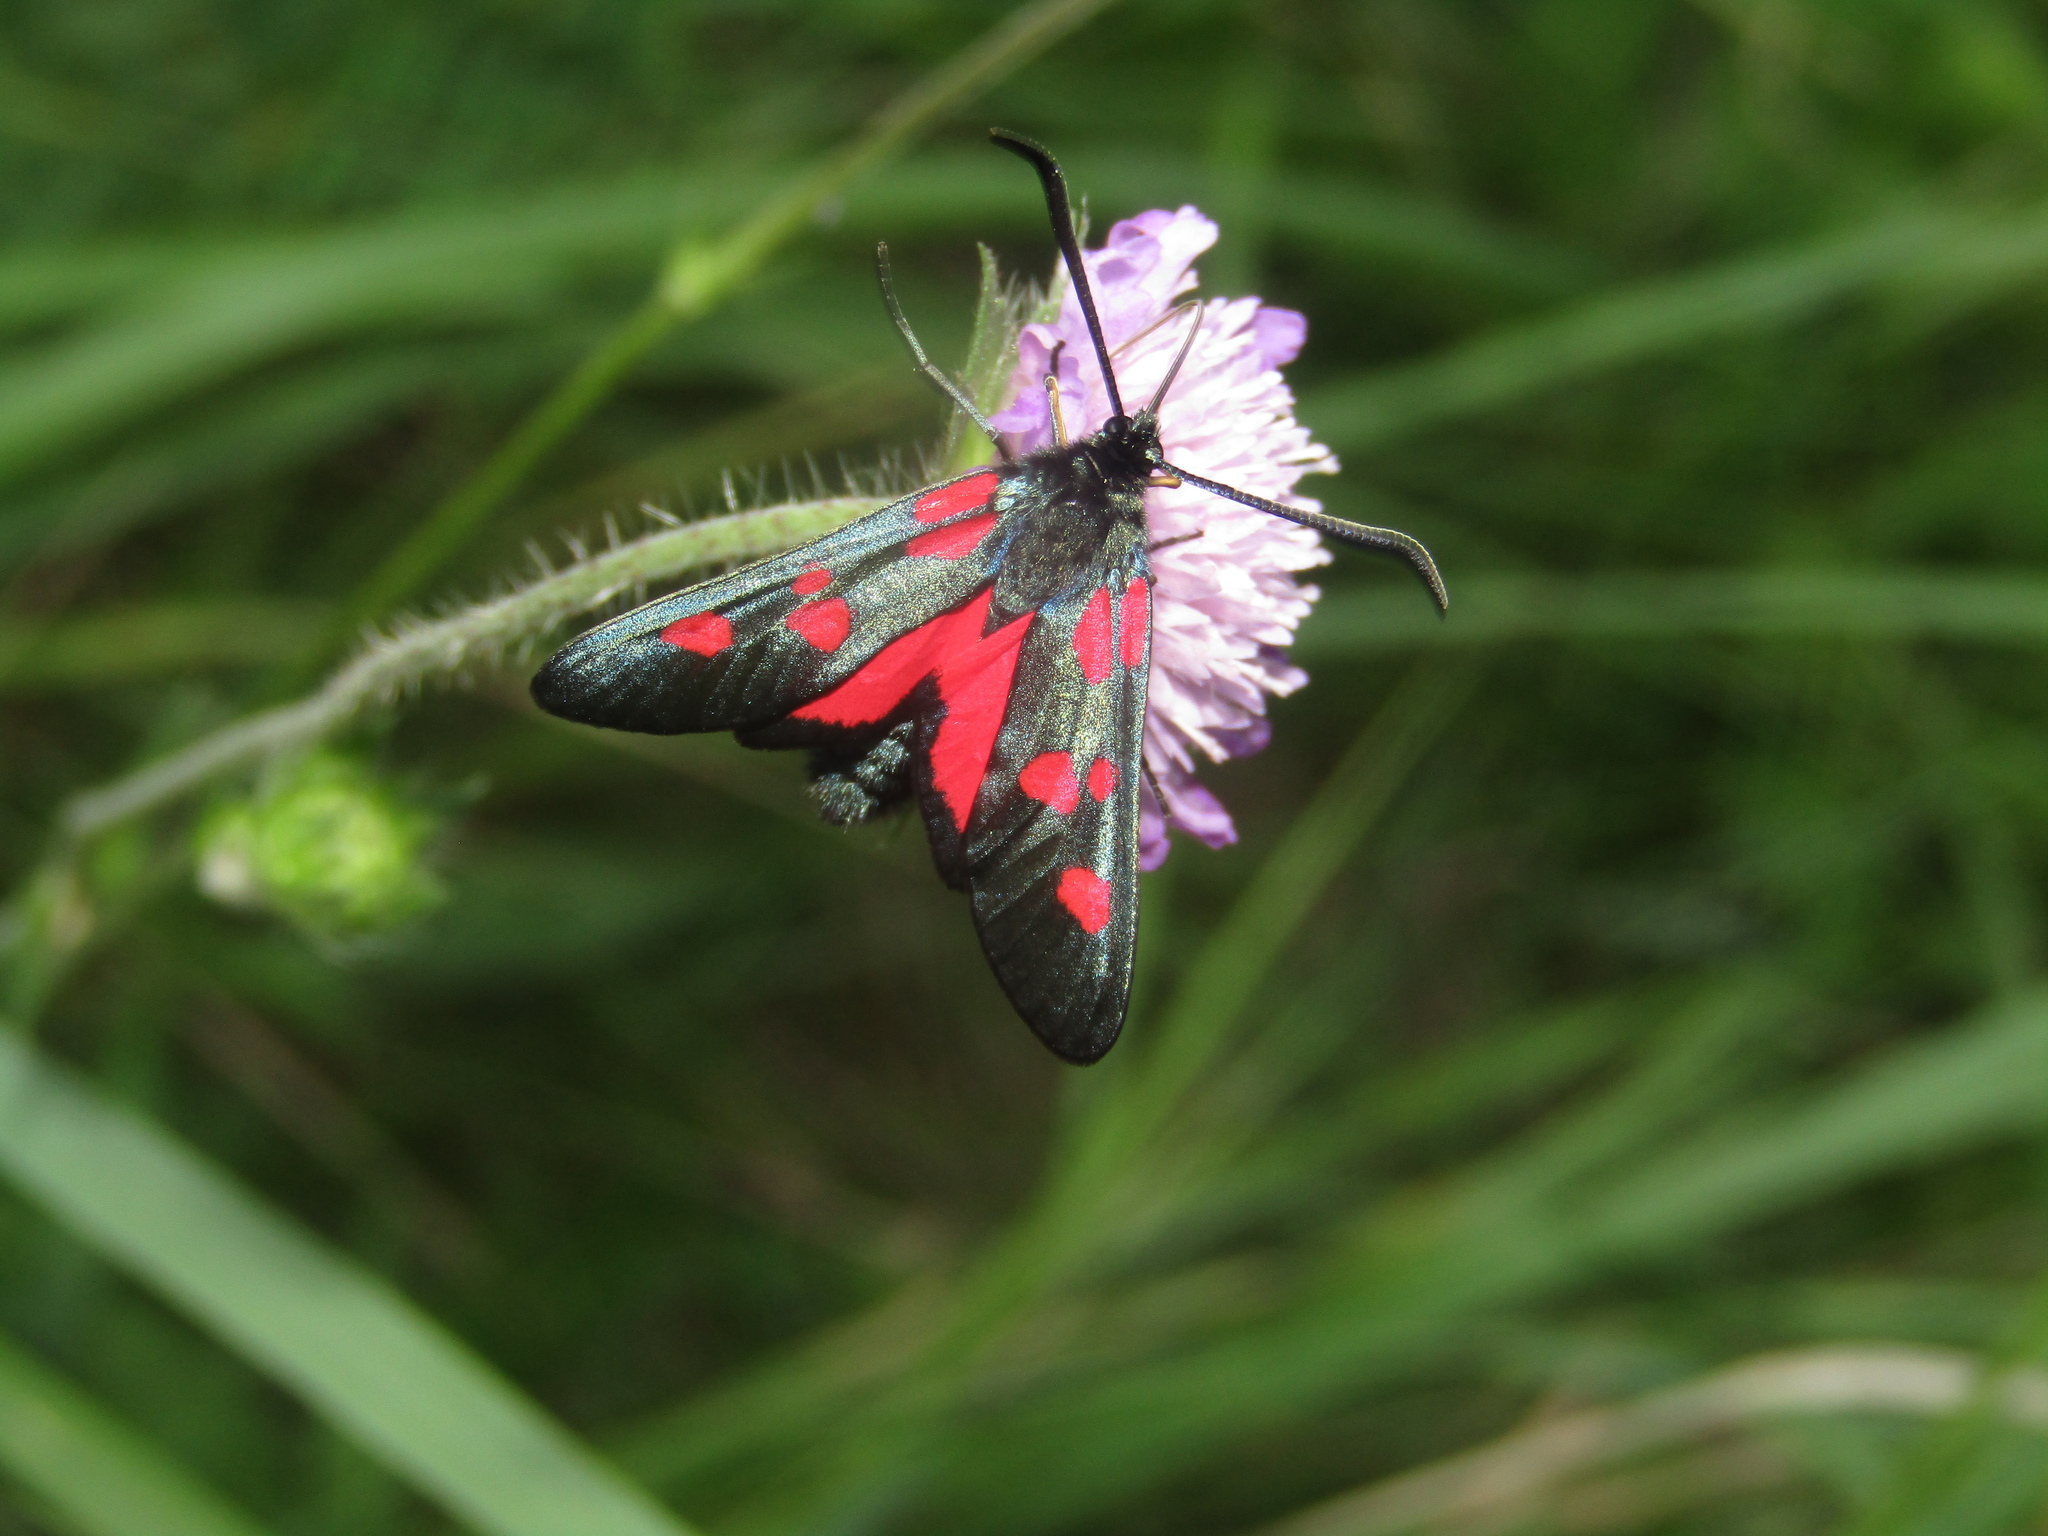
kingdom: Animalia
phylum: Arthropoda
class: Insecta
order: Lepidoptera
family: Zygaenidae
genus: Zygaena
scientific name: Zygaena lonicerae
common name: Narrow-bordered five-spot burnet
